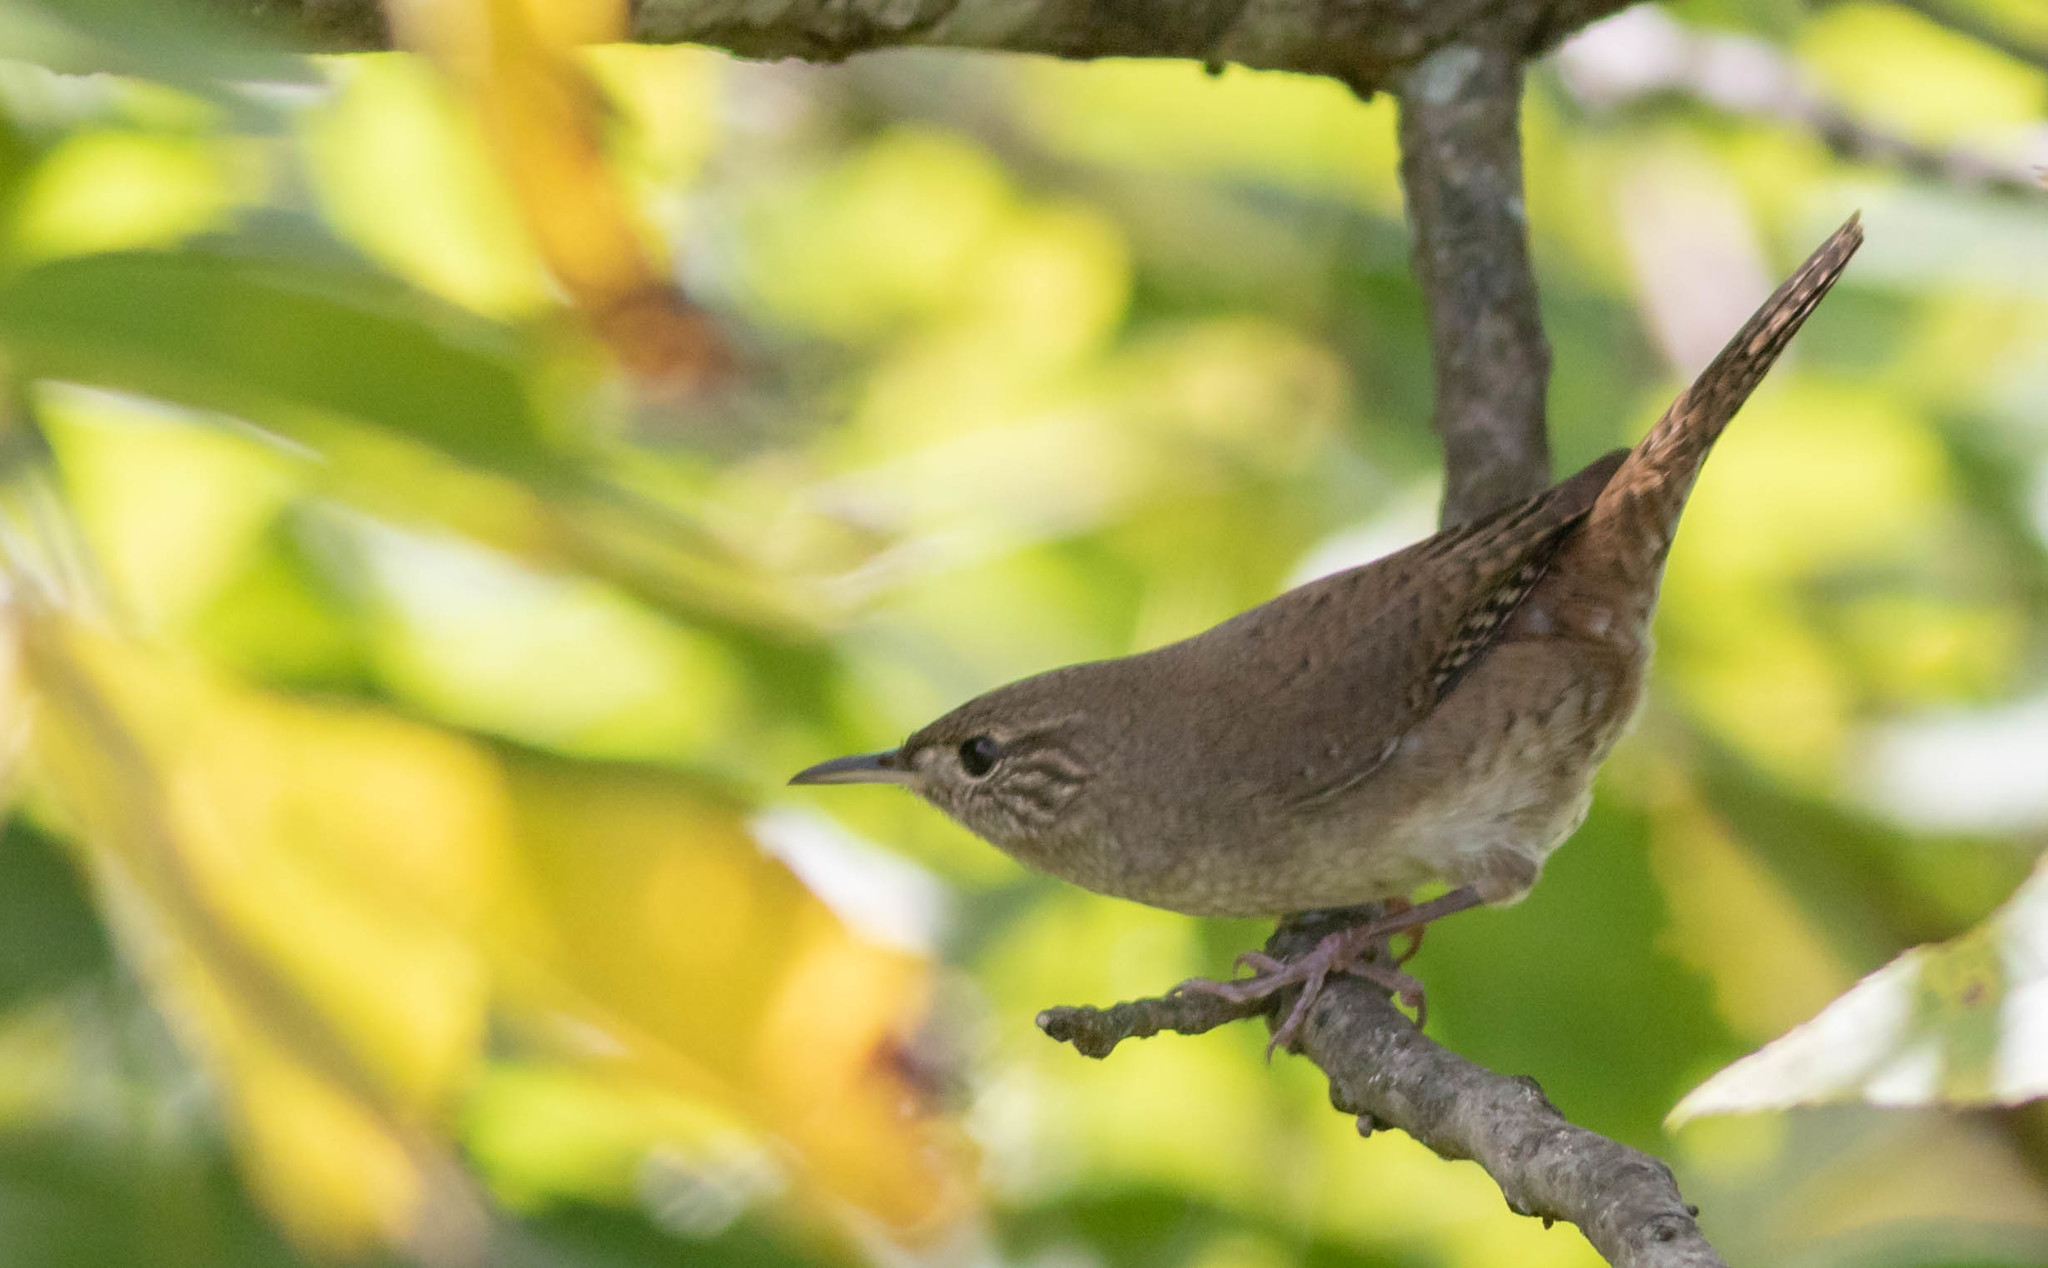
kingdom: Animalia
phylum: Chordata
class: Aves
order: Passeriformes
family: Troglodytidae
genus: Troglodytes
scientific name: Troglodytes aedon
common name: House wren
